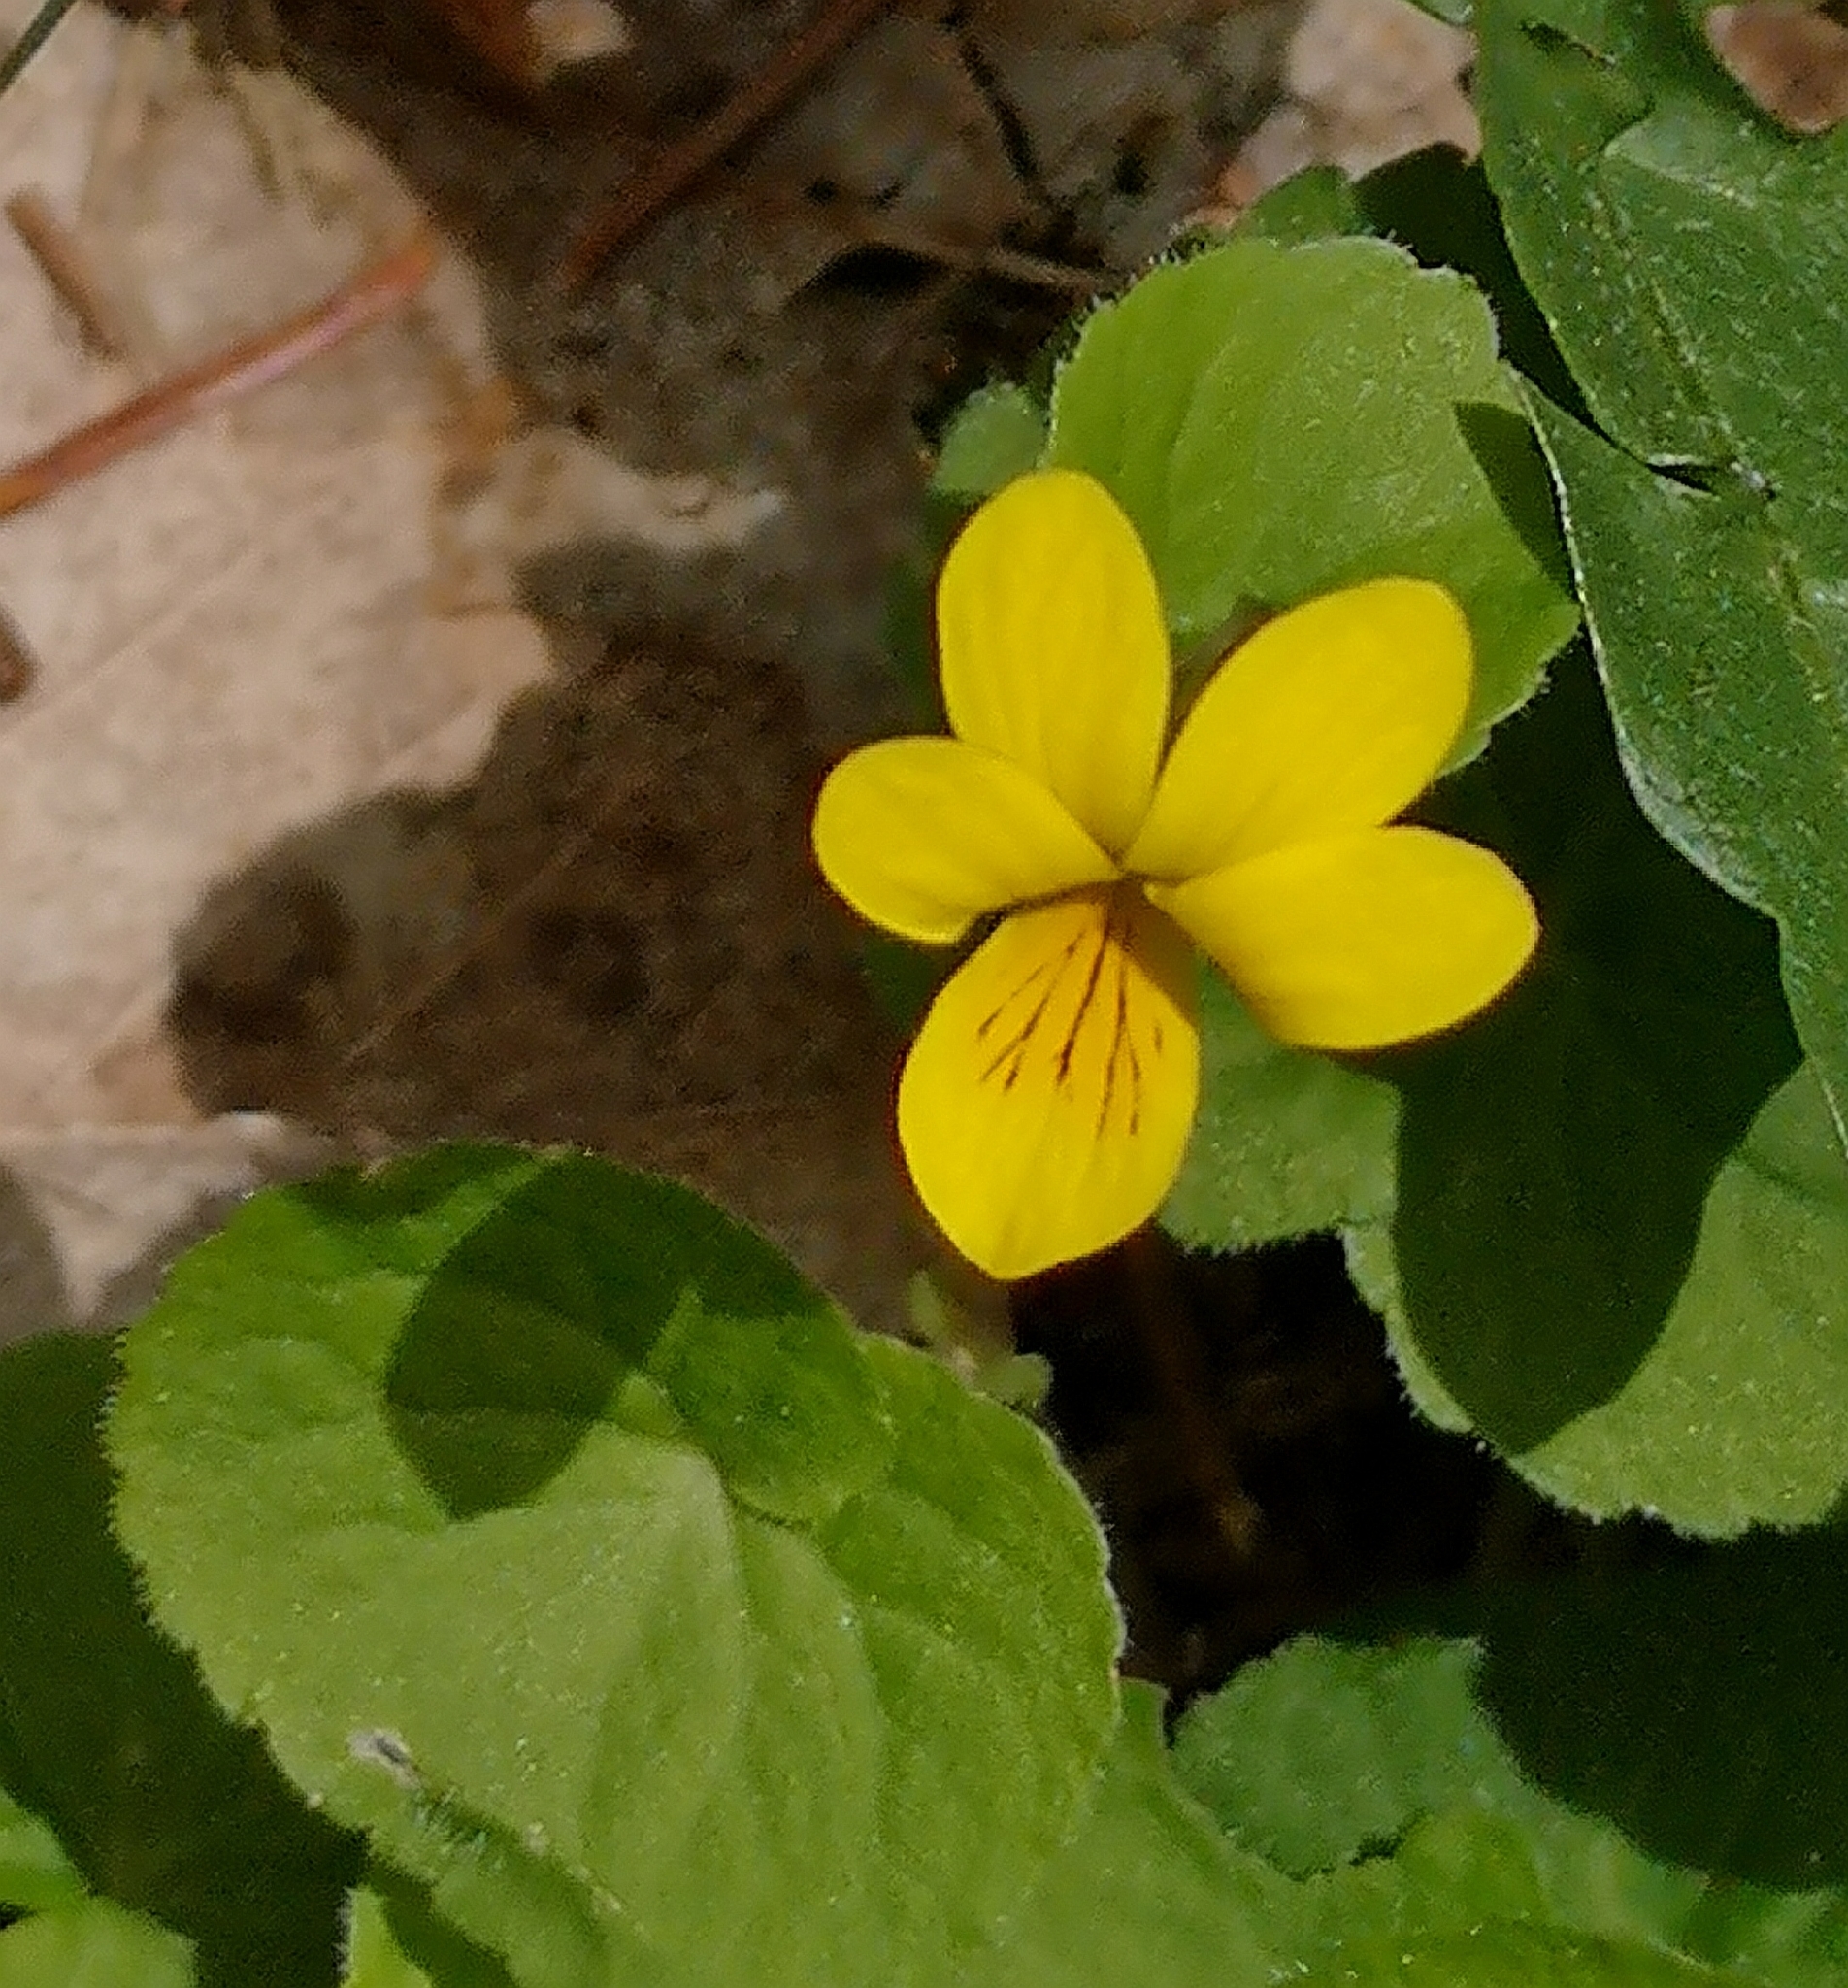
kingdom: Plantae
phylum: Tracheophyta
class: Magnoliopsida
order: Malpighiales
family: Violaceae
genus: Viola
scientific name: Viola biflora
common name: Alpine yellow violet
